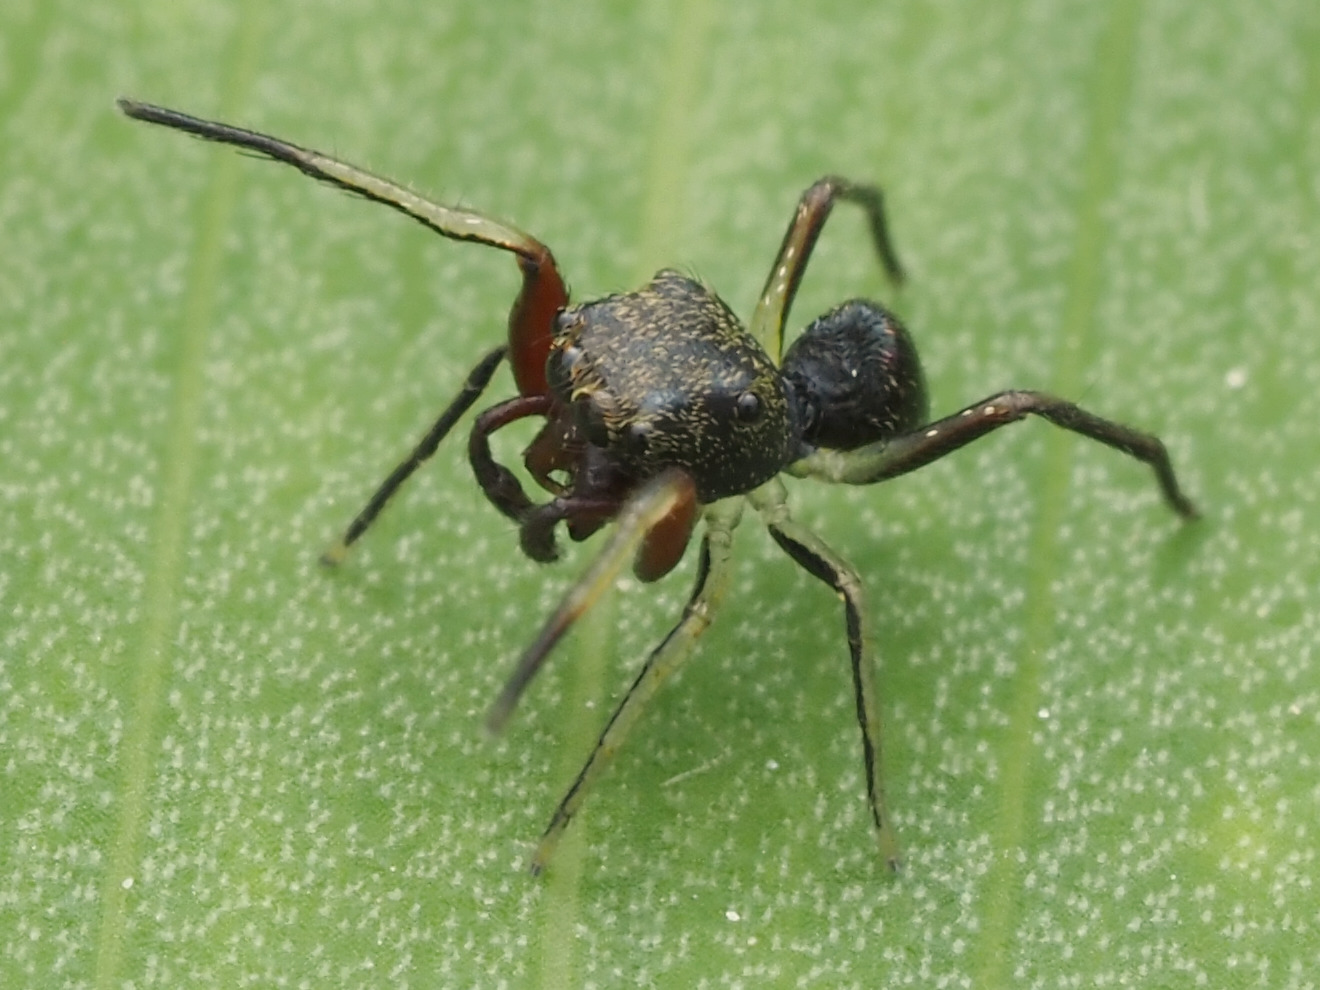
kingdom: Animalia
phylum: Arthropoda
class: Arachnida
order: Araneae
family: Salticidae
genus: Zygoballus
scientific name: Zygoballus
